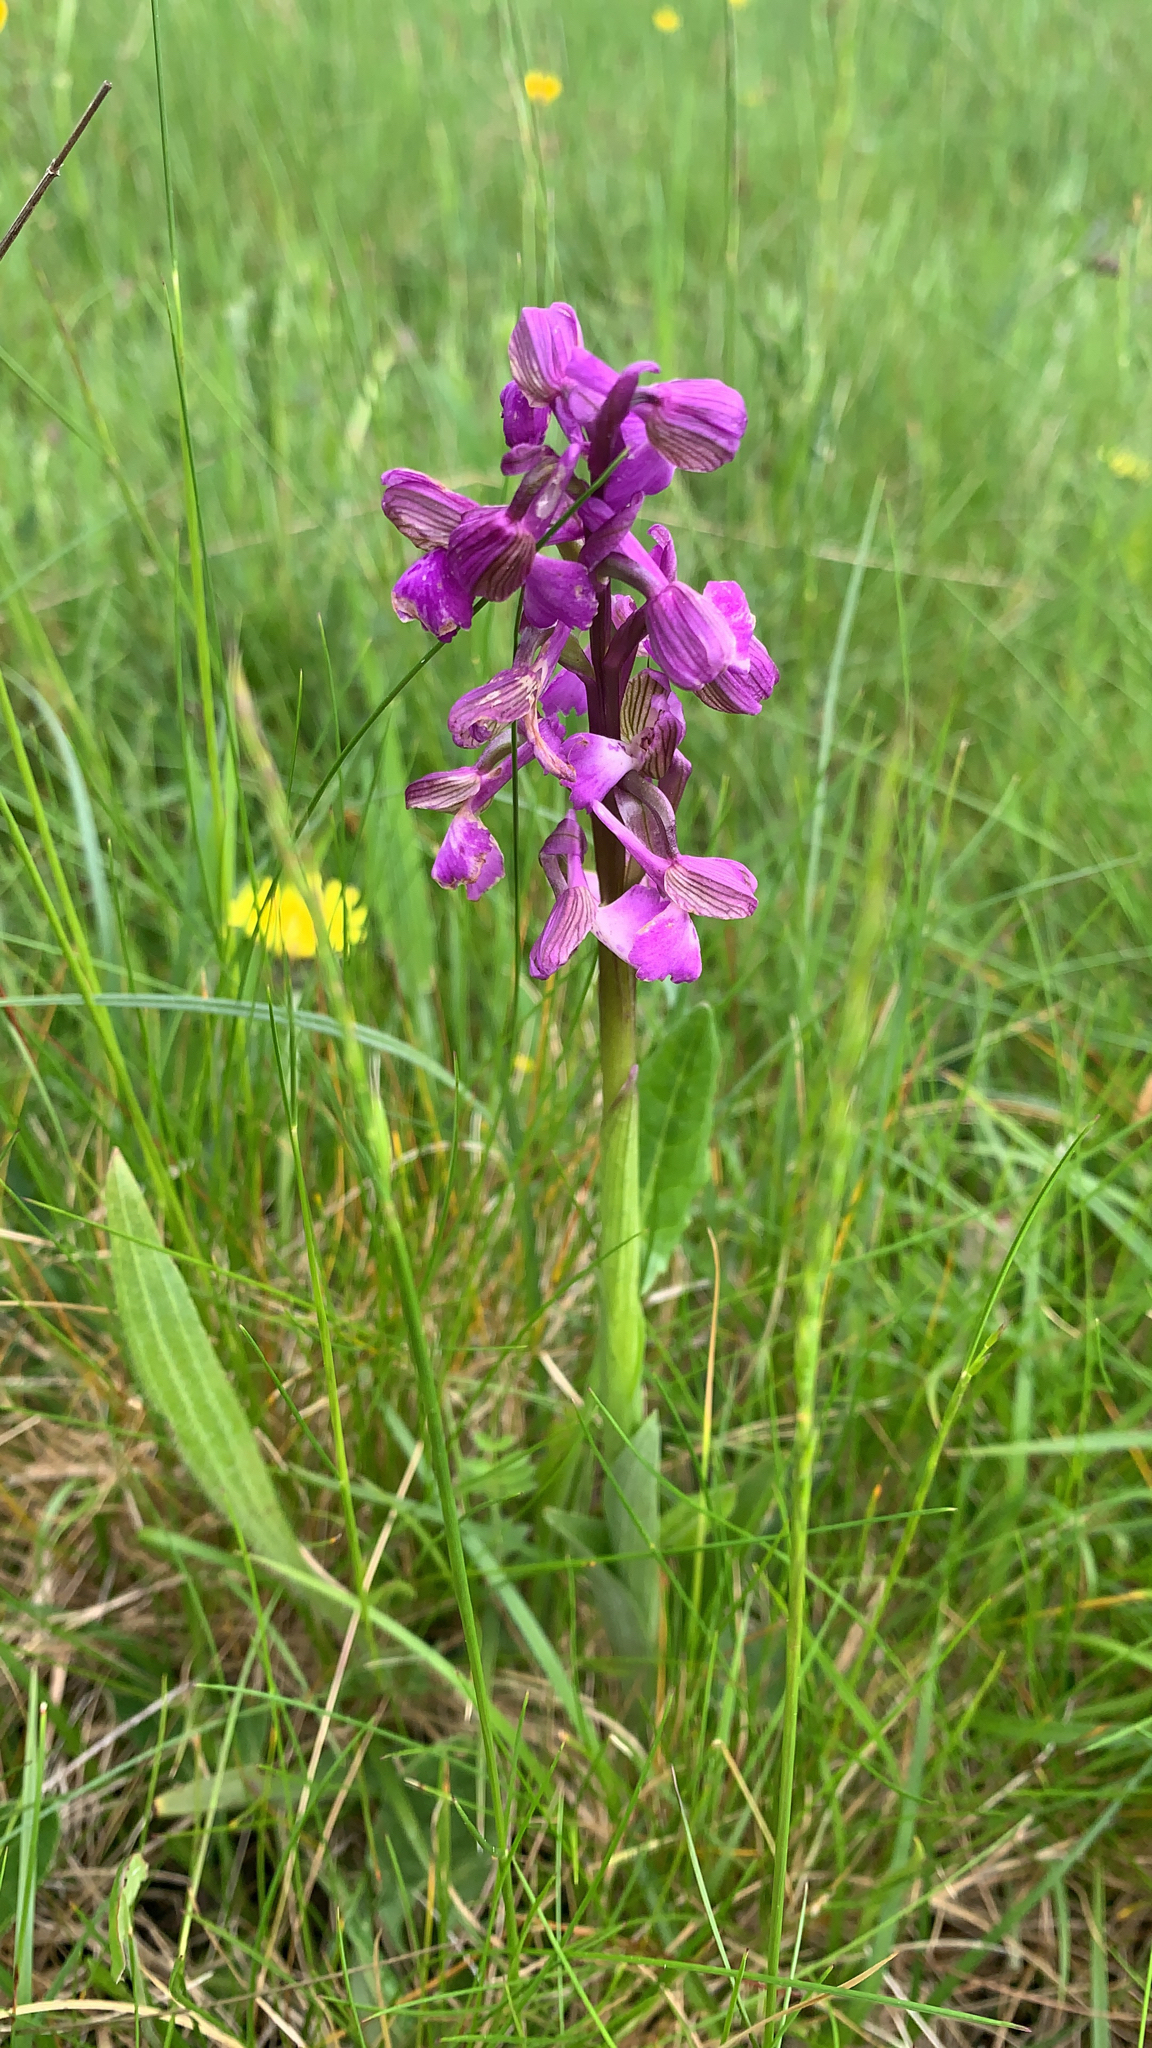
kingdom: Plantae
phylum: Tracheophyta
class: Liliopsida
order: Asparagales
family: Orchidaceae
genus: Anacamptis
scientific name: Anacamptis morio
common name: Green-winged orchid
